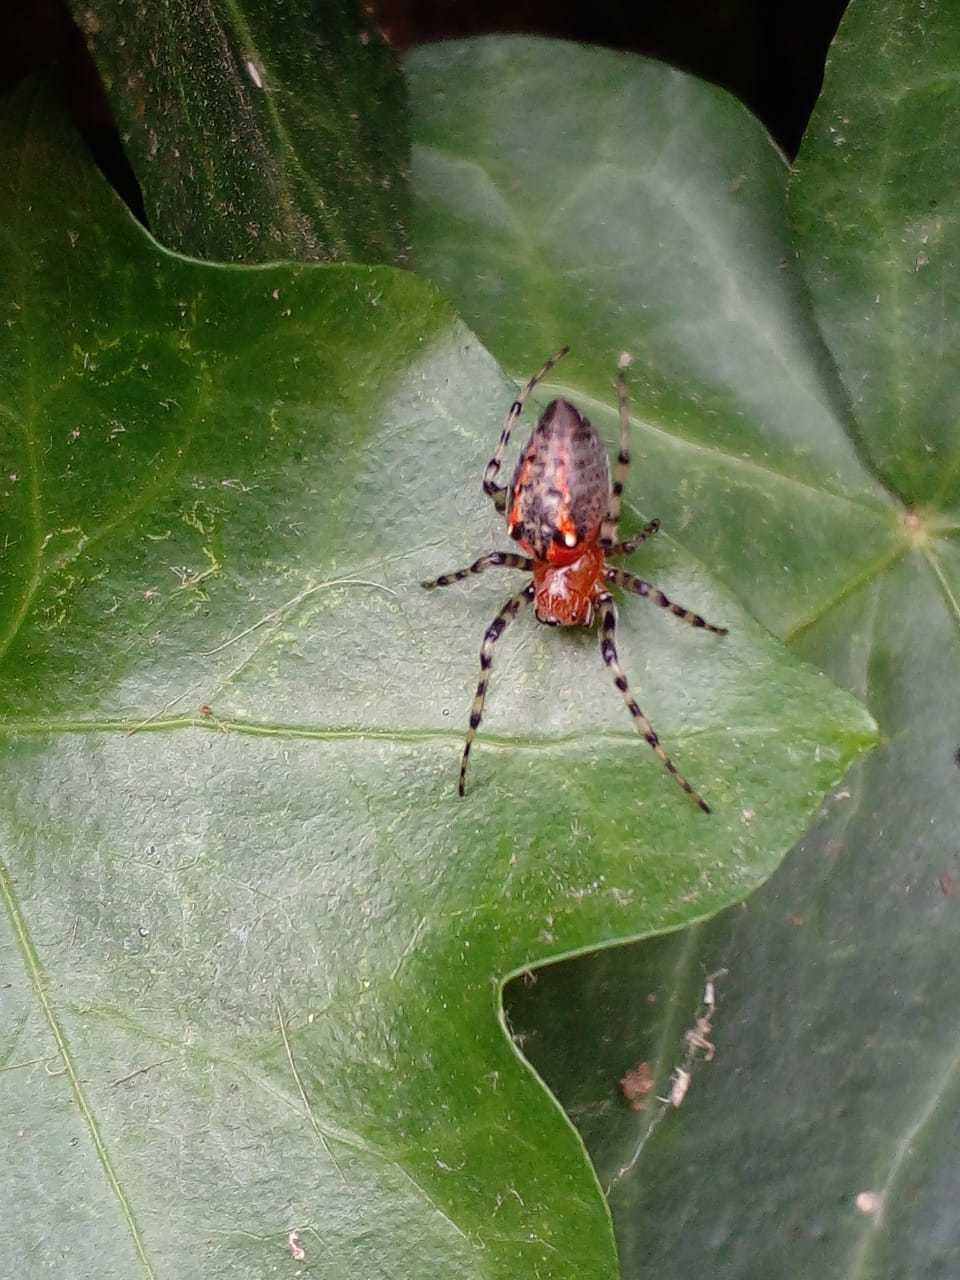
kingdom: Animalia
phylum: Arthropoda
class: Arachnida
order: Araneae
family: Araneidae
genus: Alpaida
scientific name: Alpaida gallardoi
